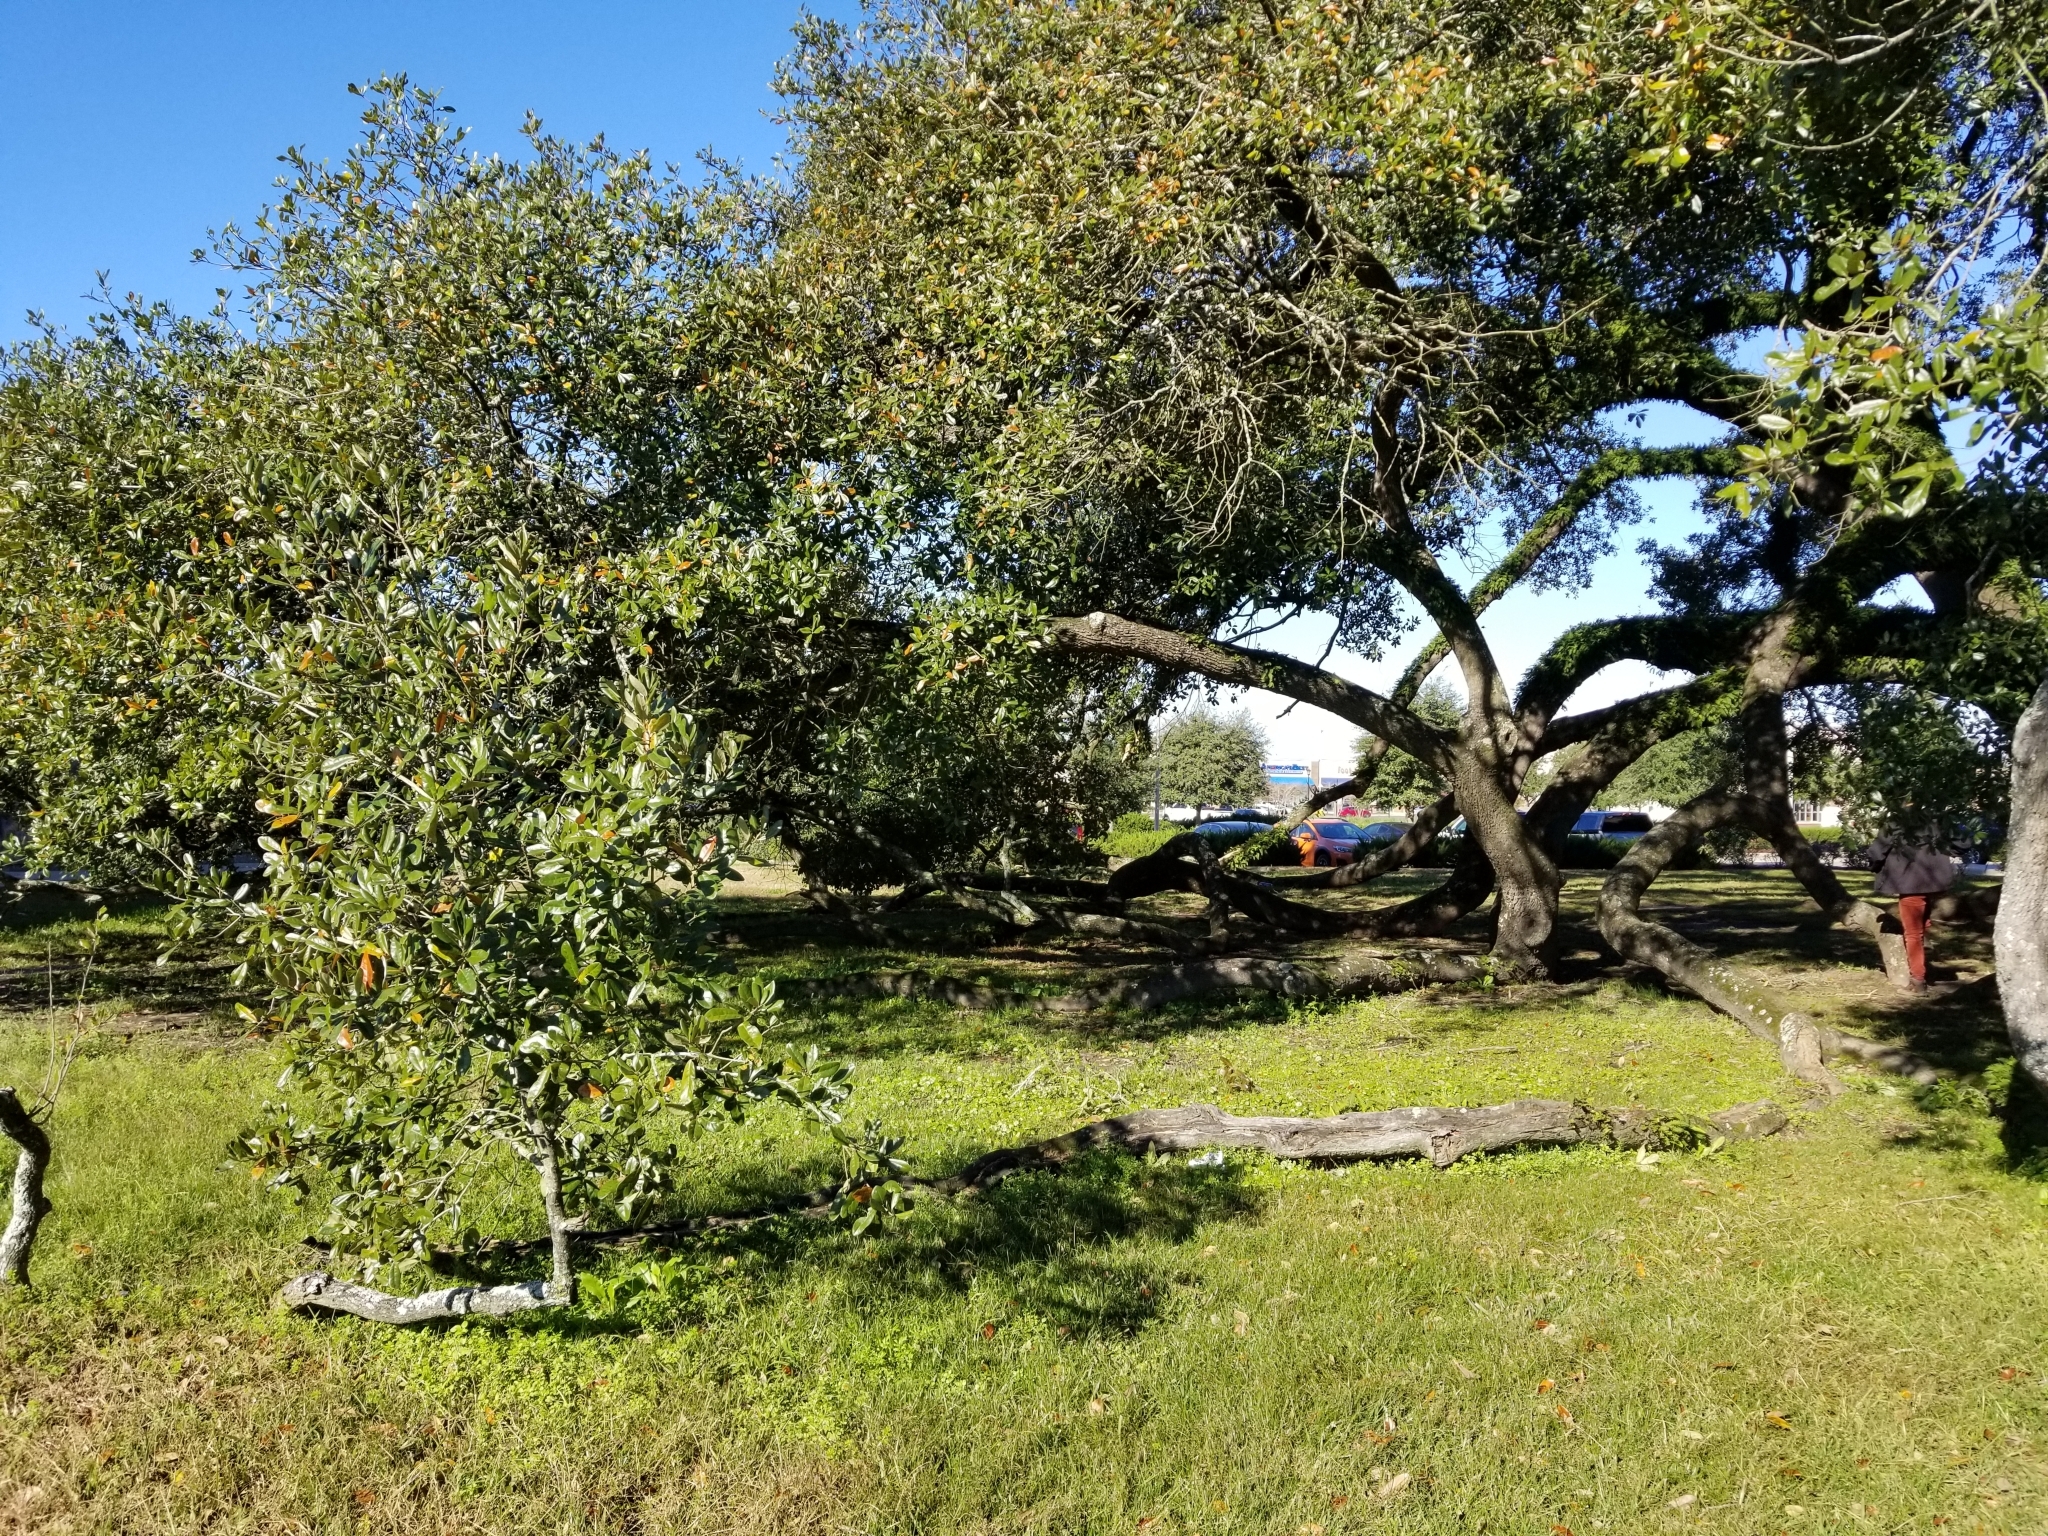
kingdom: Plantae
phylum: Tracheophyta
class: Magnoliopsida
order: Fagales
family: Fagaceae
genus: Quercus
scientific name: Quercus virginiana
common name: Southern live oak
